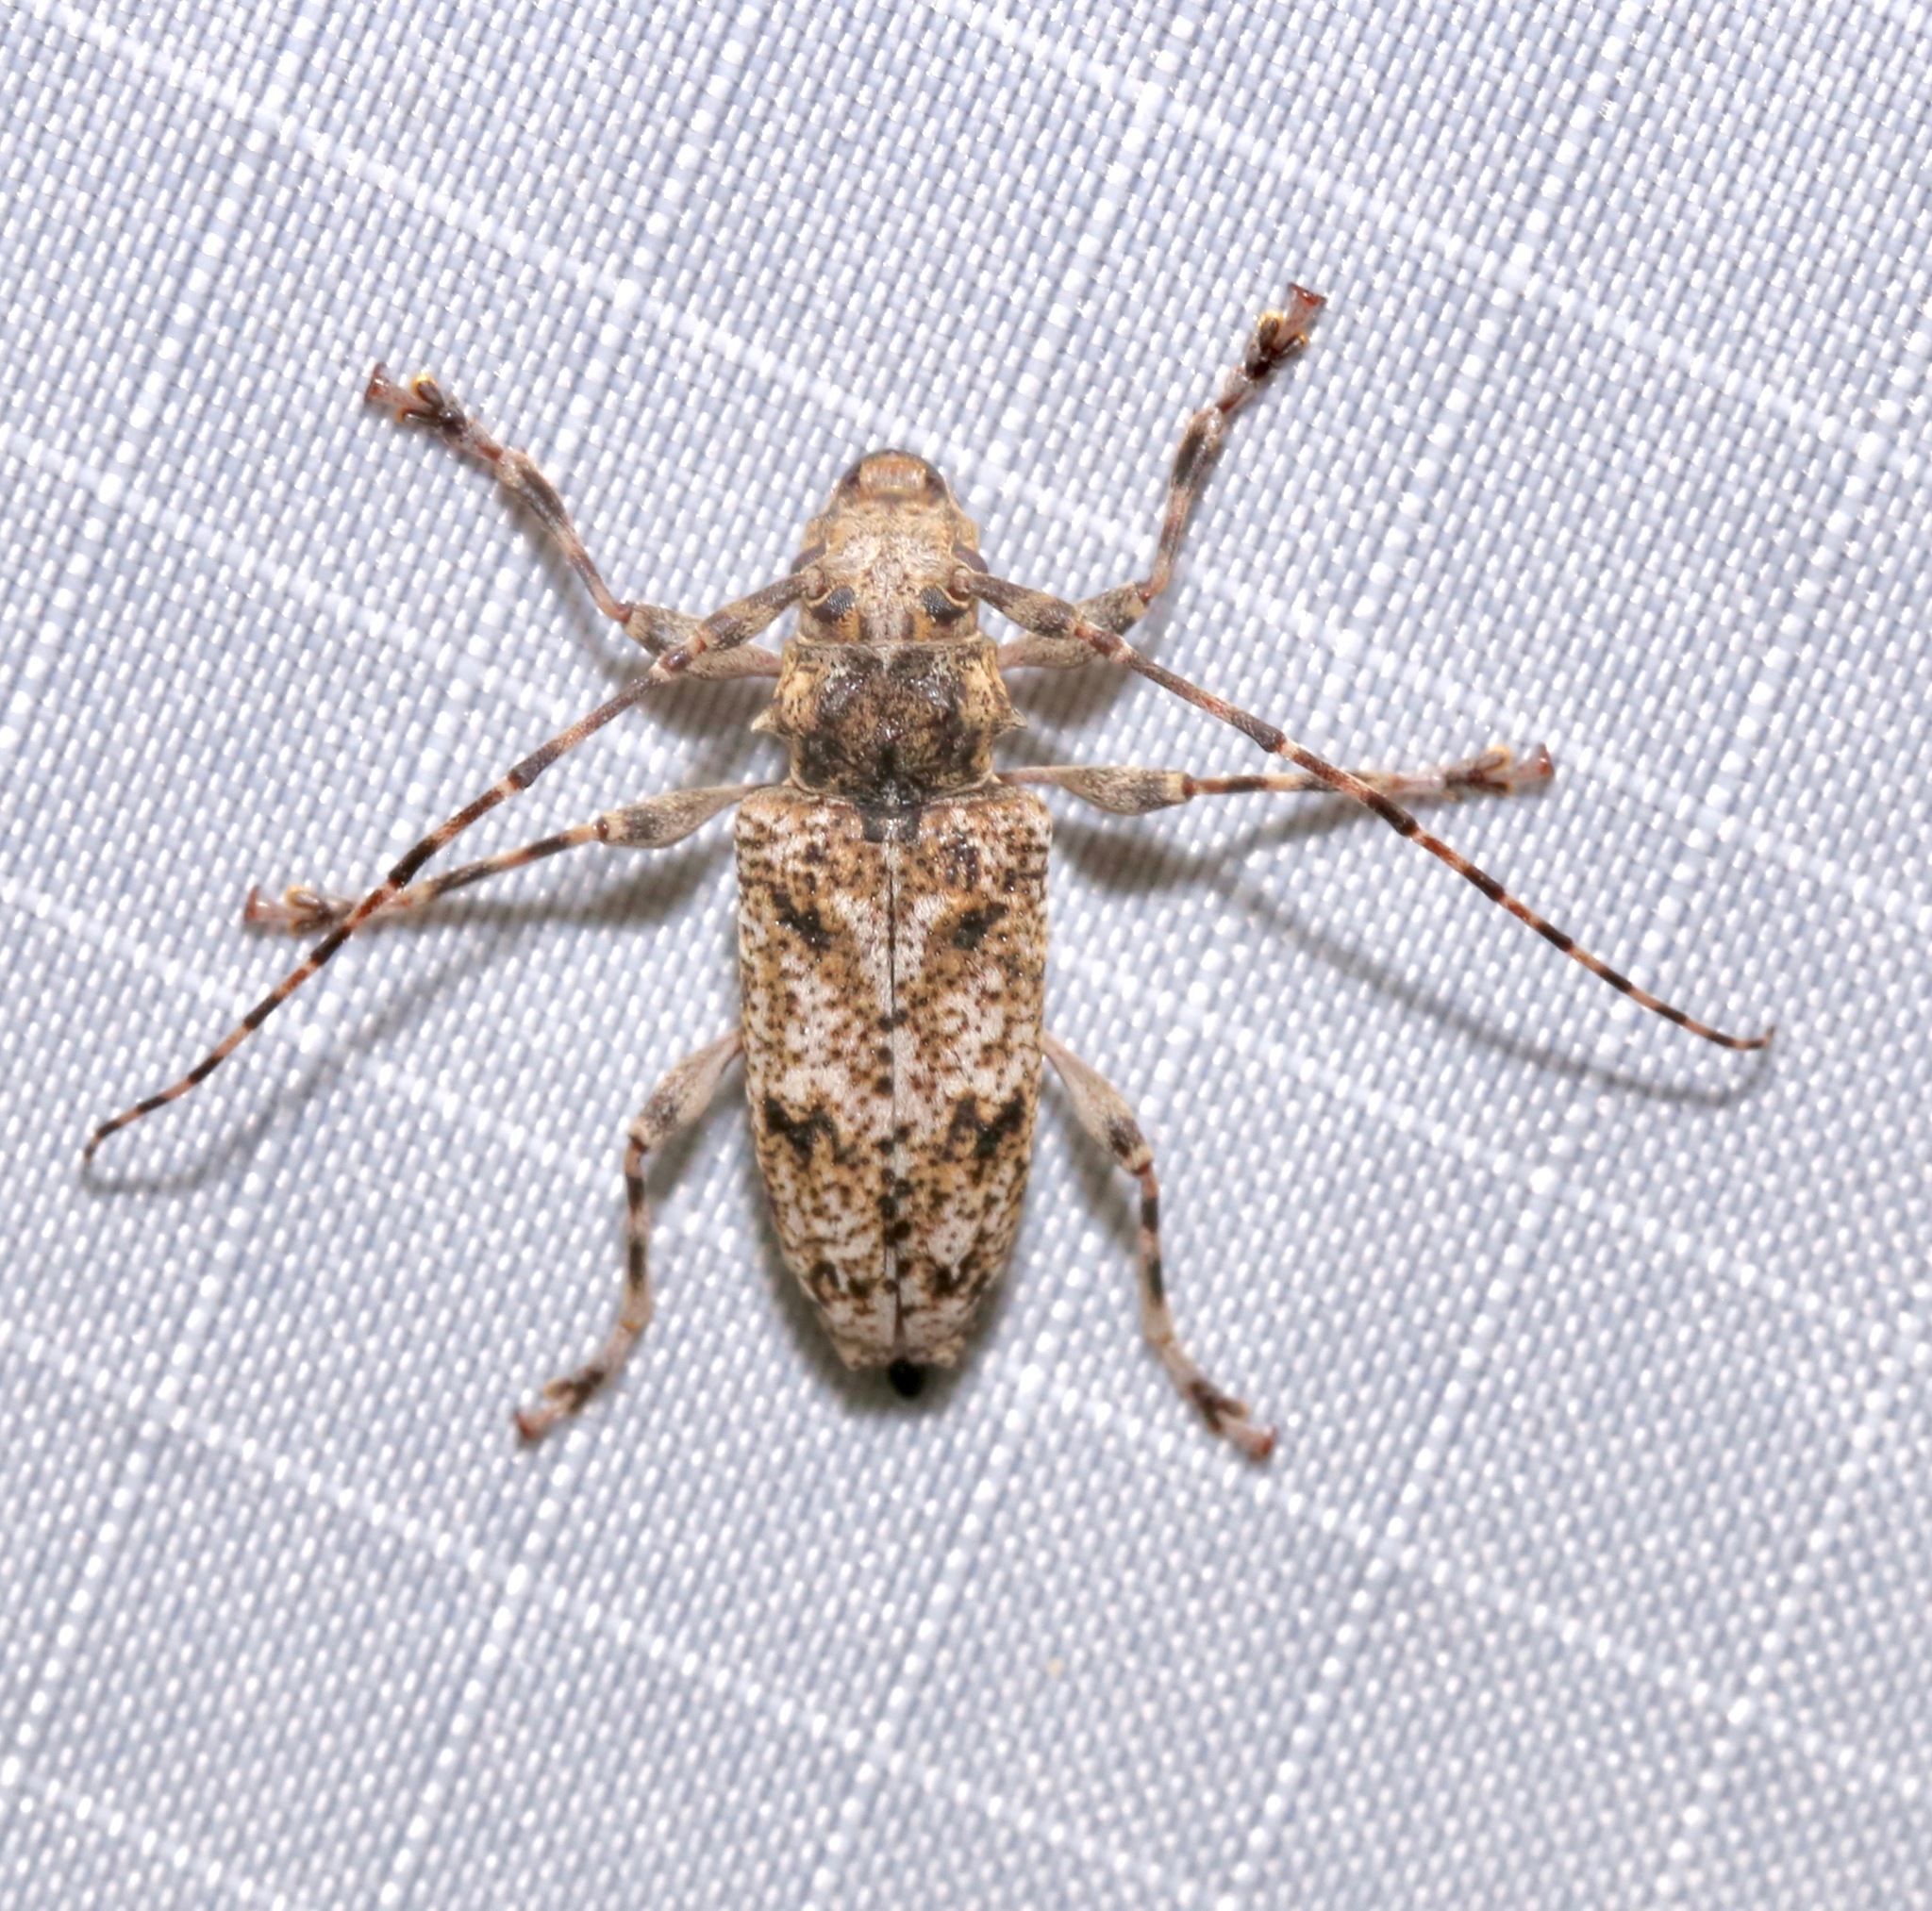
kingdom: Animalia
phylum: Arthropoda
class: Insecta
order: Coleoptera
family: Cerambycidae
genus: Aegomorphus
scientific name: Aegomorphus modestus
